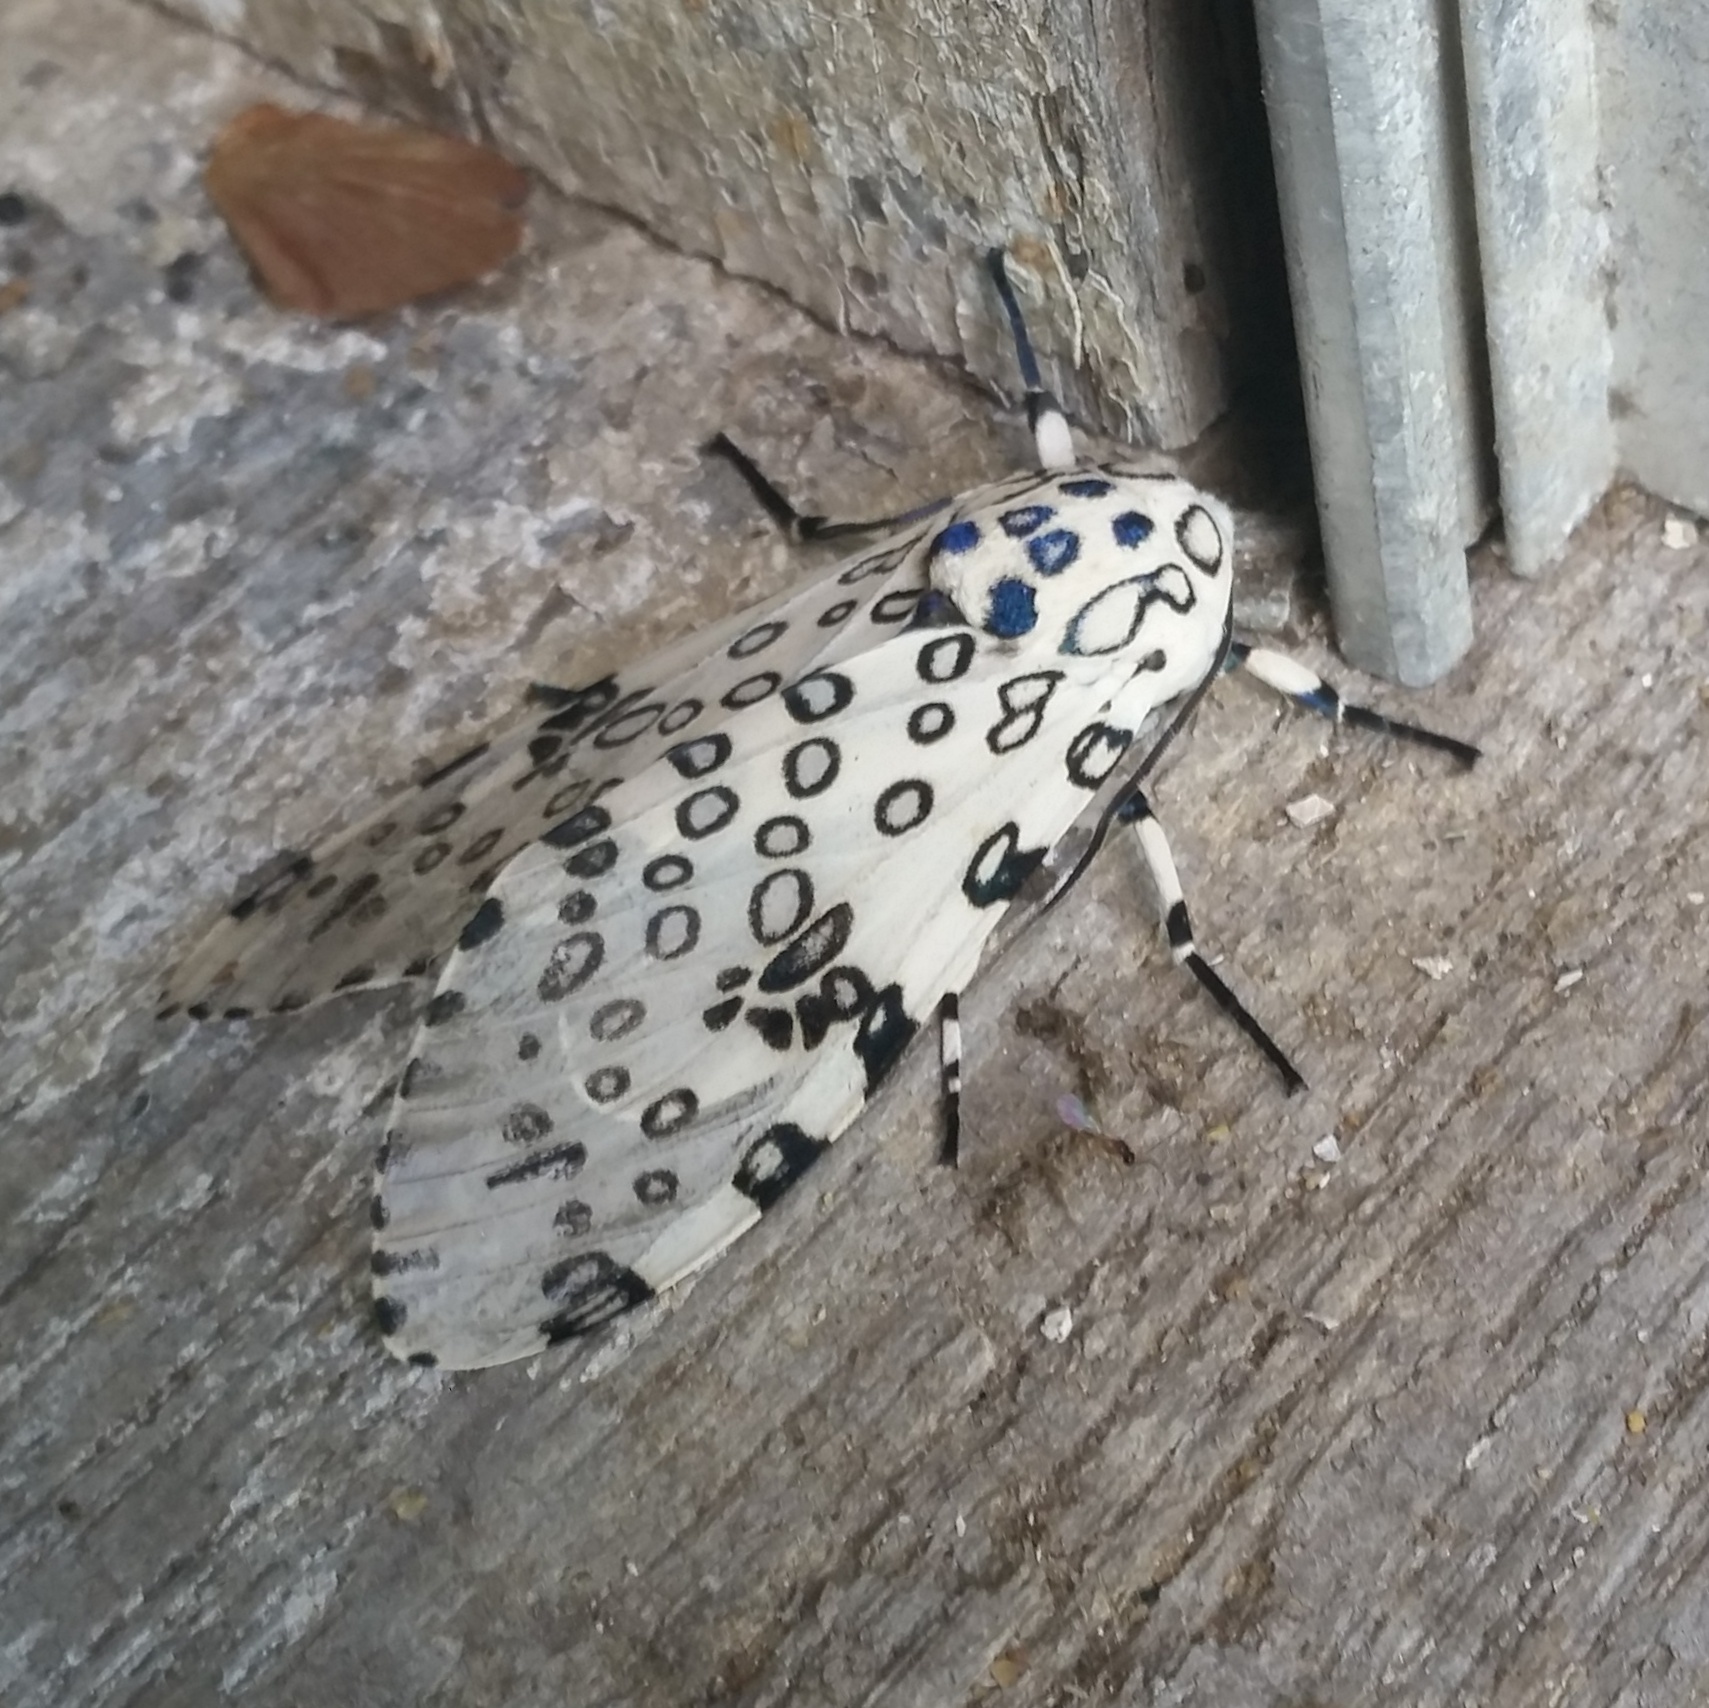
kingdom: Animalia
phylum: Arthropoda
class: Insecta
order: Lepidoptera
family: Erebidae
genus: Hypercompe
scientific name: Hypercompe scribonia
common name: Giant leopard moth
